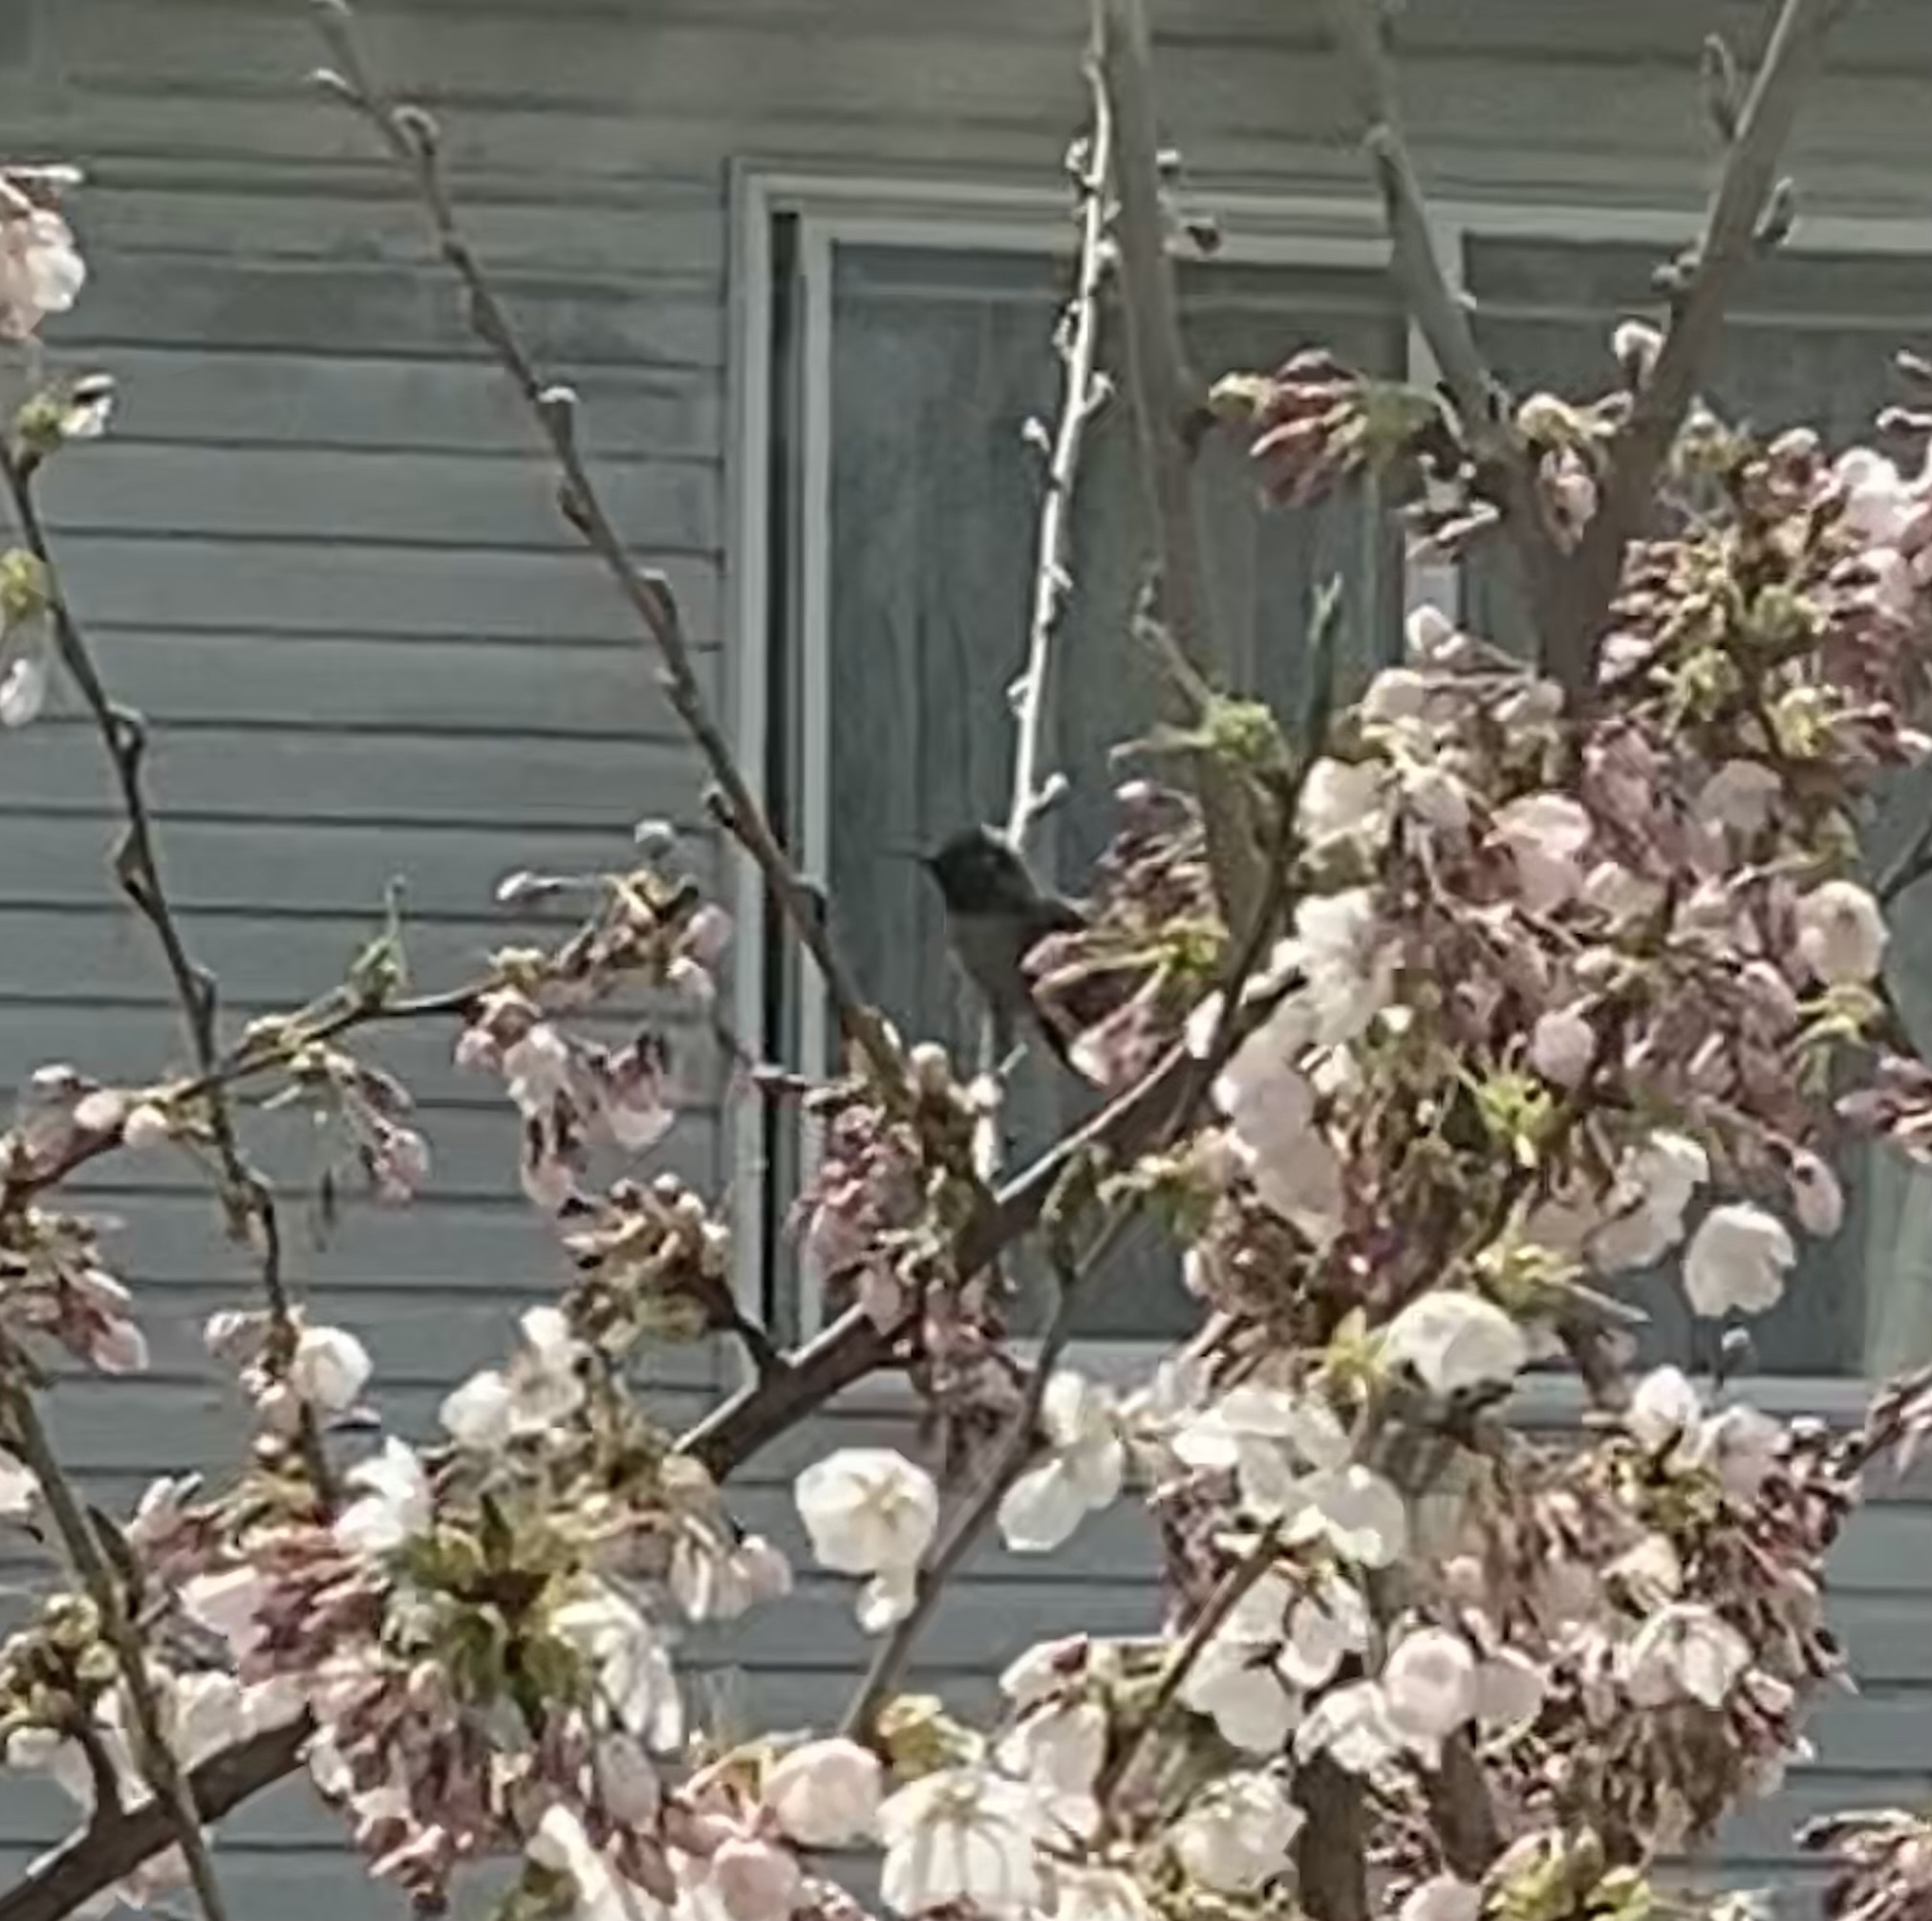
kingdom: Animalia
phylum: Chordata
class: Aves
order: Apodiformes
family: Trochilidae
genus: Calypte
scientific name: Calypte anna
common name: Anna's hummingbird
